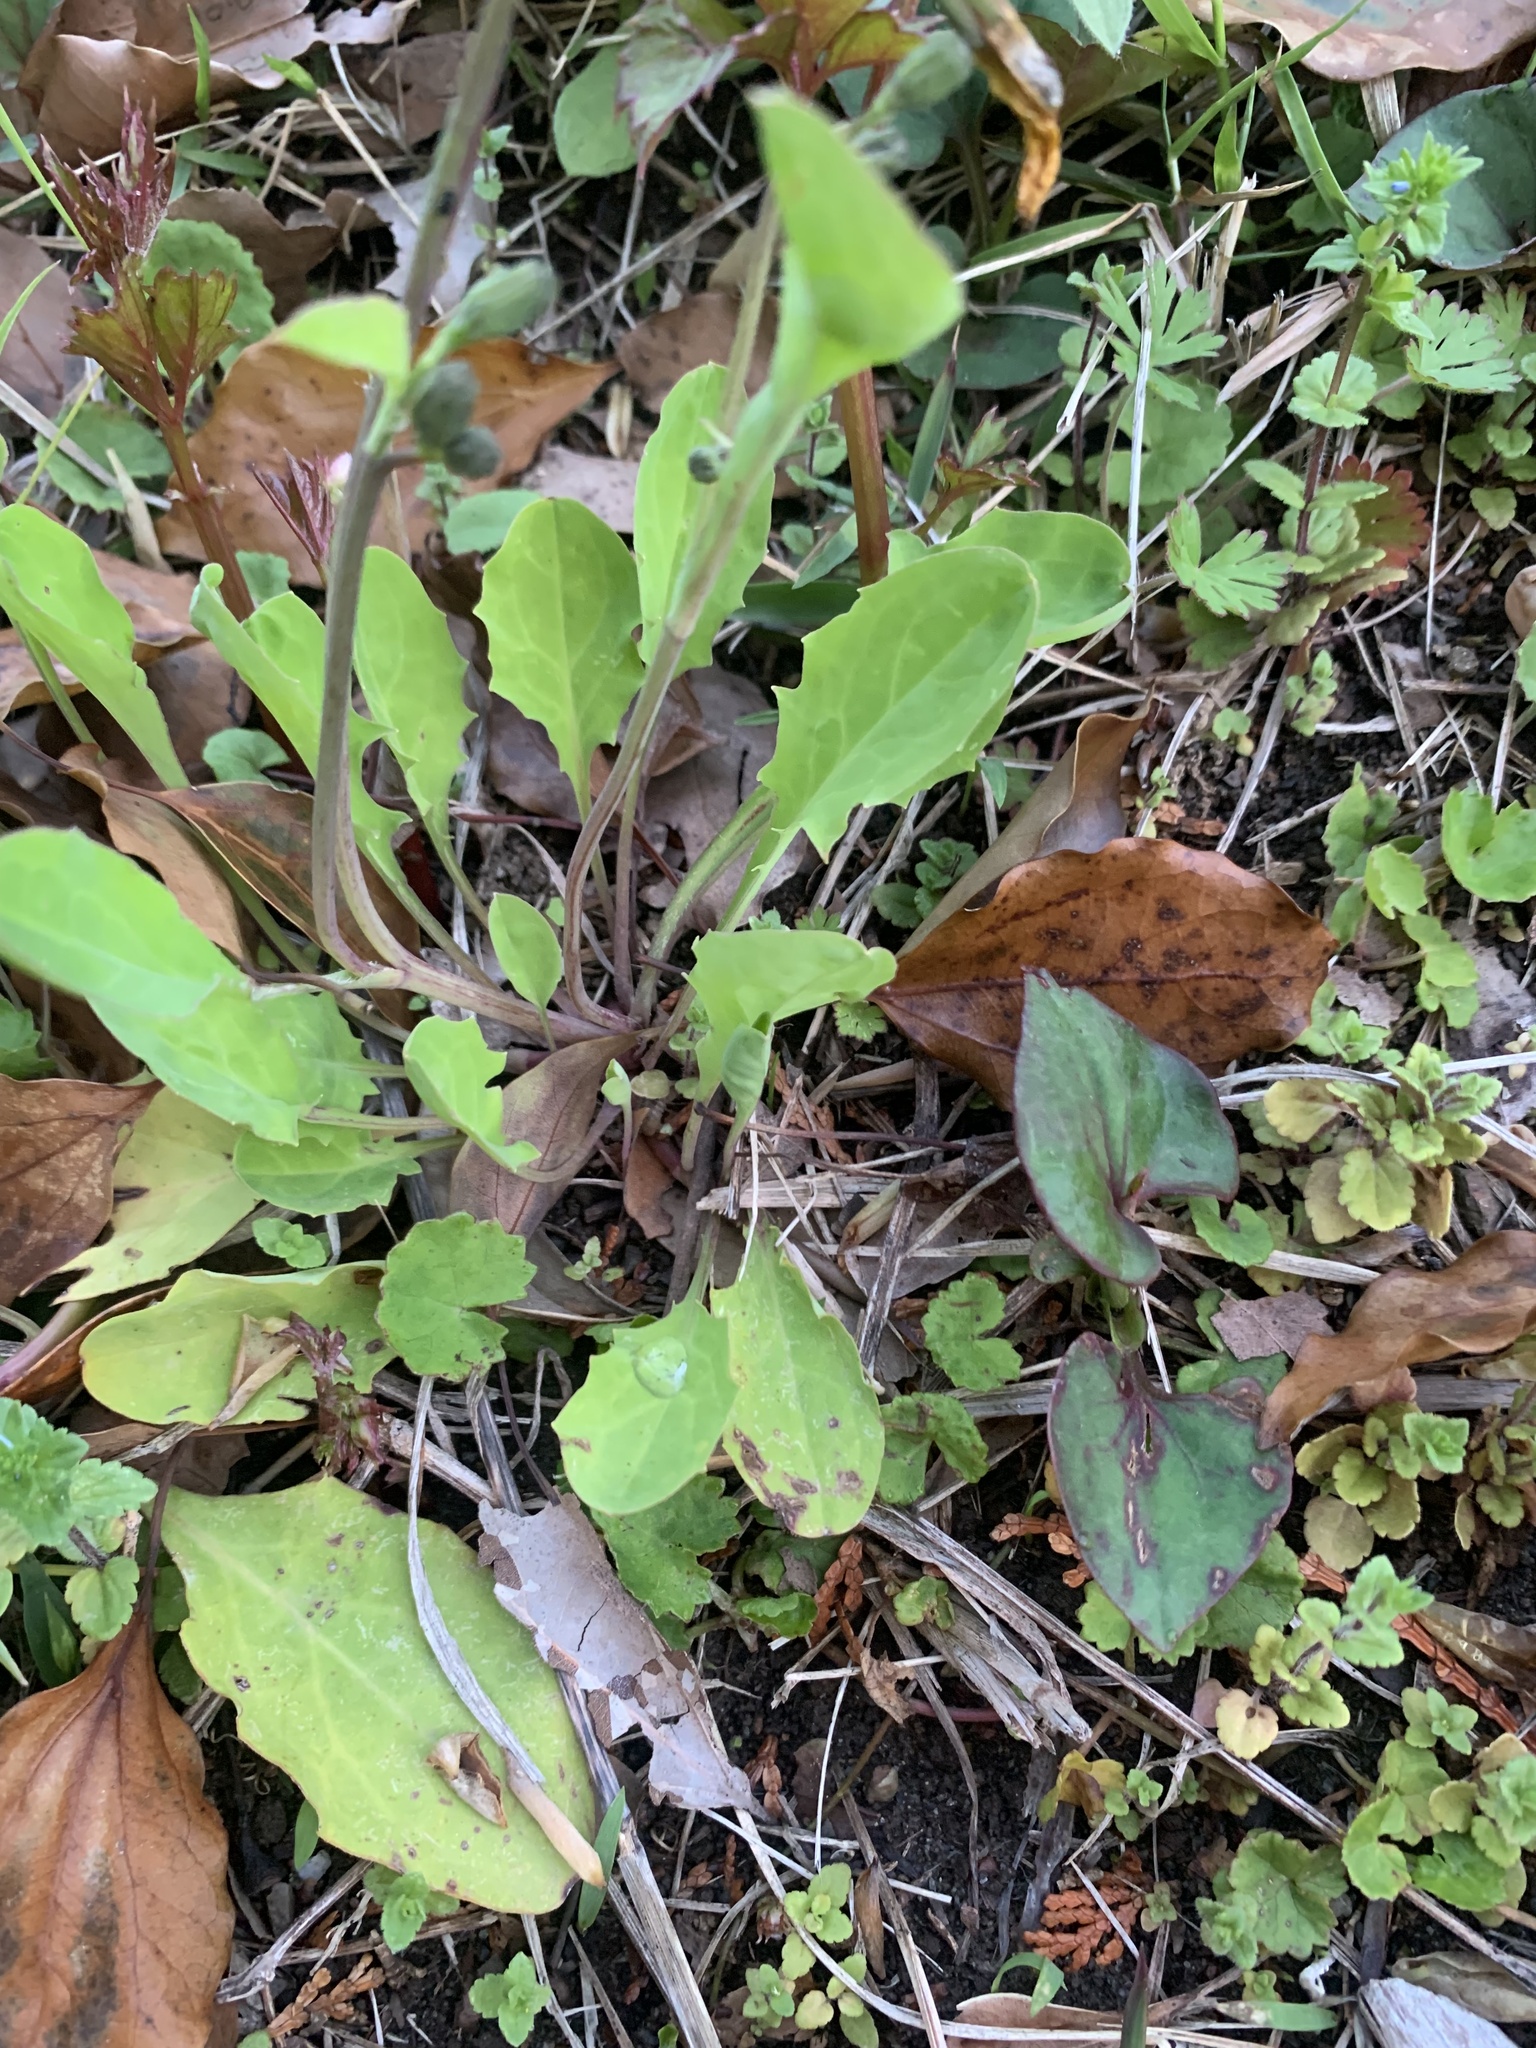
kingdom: Plantae
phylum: Tracheophyta
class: Magnoliopsida
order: Asterales
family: Asteraceae
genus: Ixeris
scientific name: Ixeris japonica
